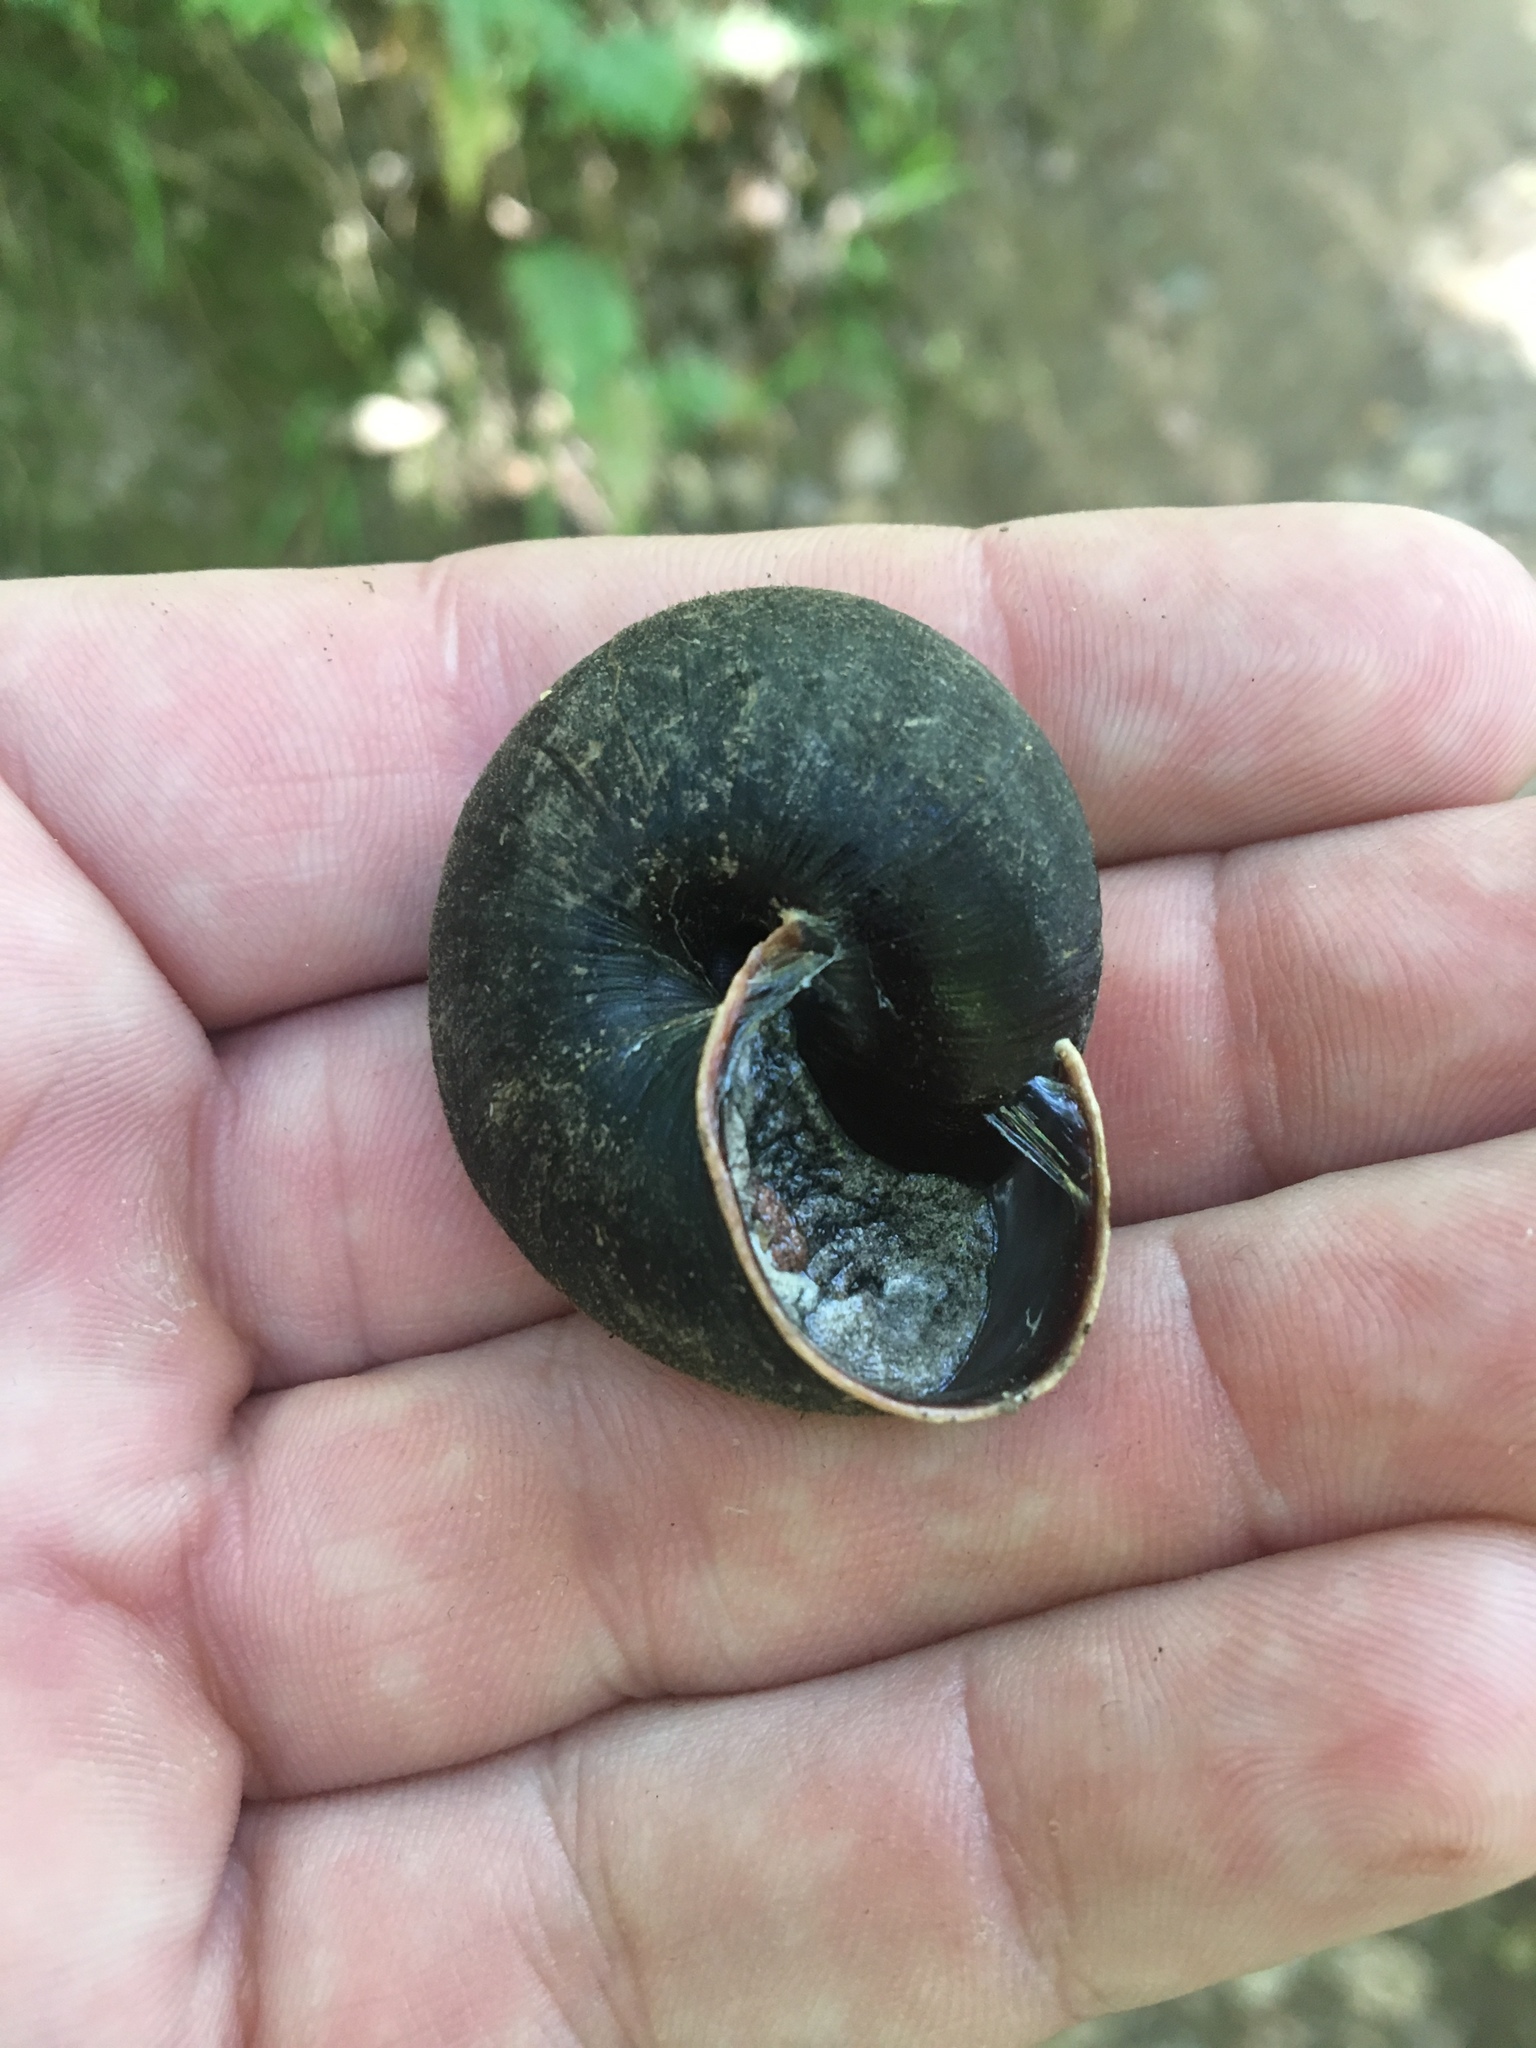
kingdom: Animalia
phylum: Mollusca
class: Gastropoda
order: Stylommatophora
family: Xanthonychidae
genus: Monadenia
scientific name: Monadenia infumata
